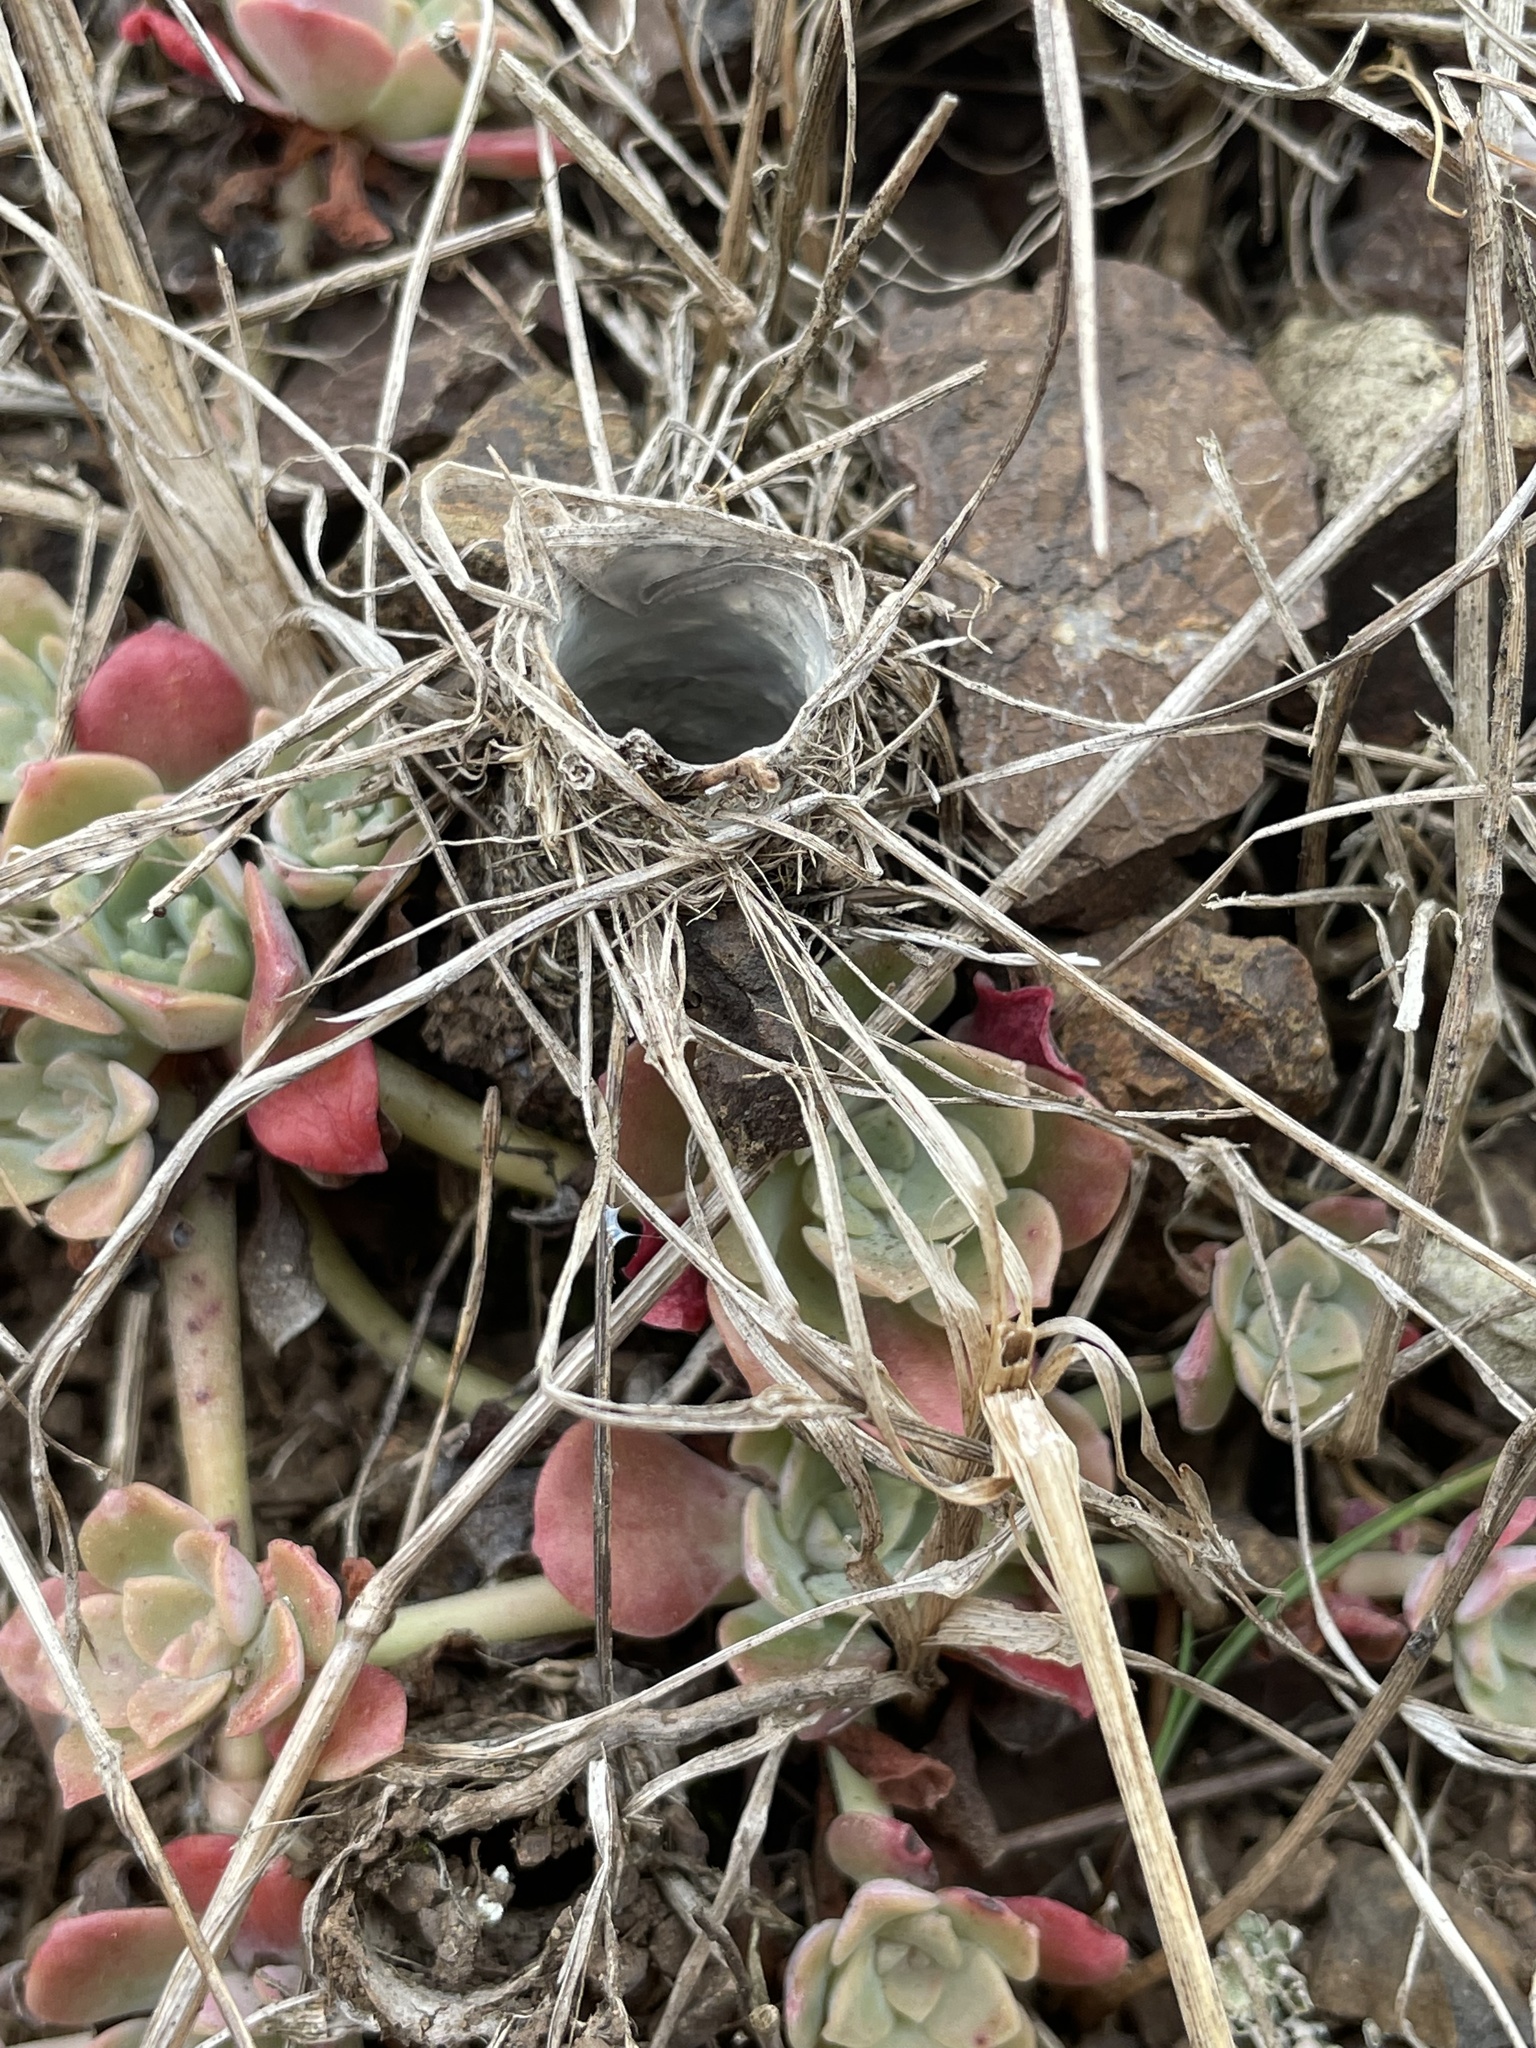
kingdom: Animalia
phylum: Arthropoda
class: Arachnida
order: Araneae
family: Antrodiaetidae
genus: Atypoides
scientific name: Atypoides riversi
